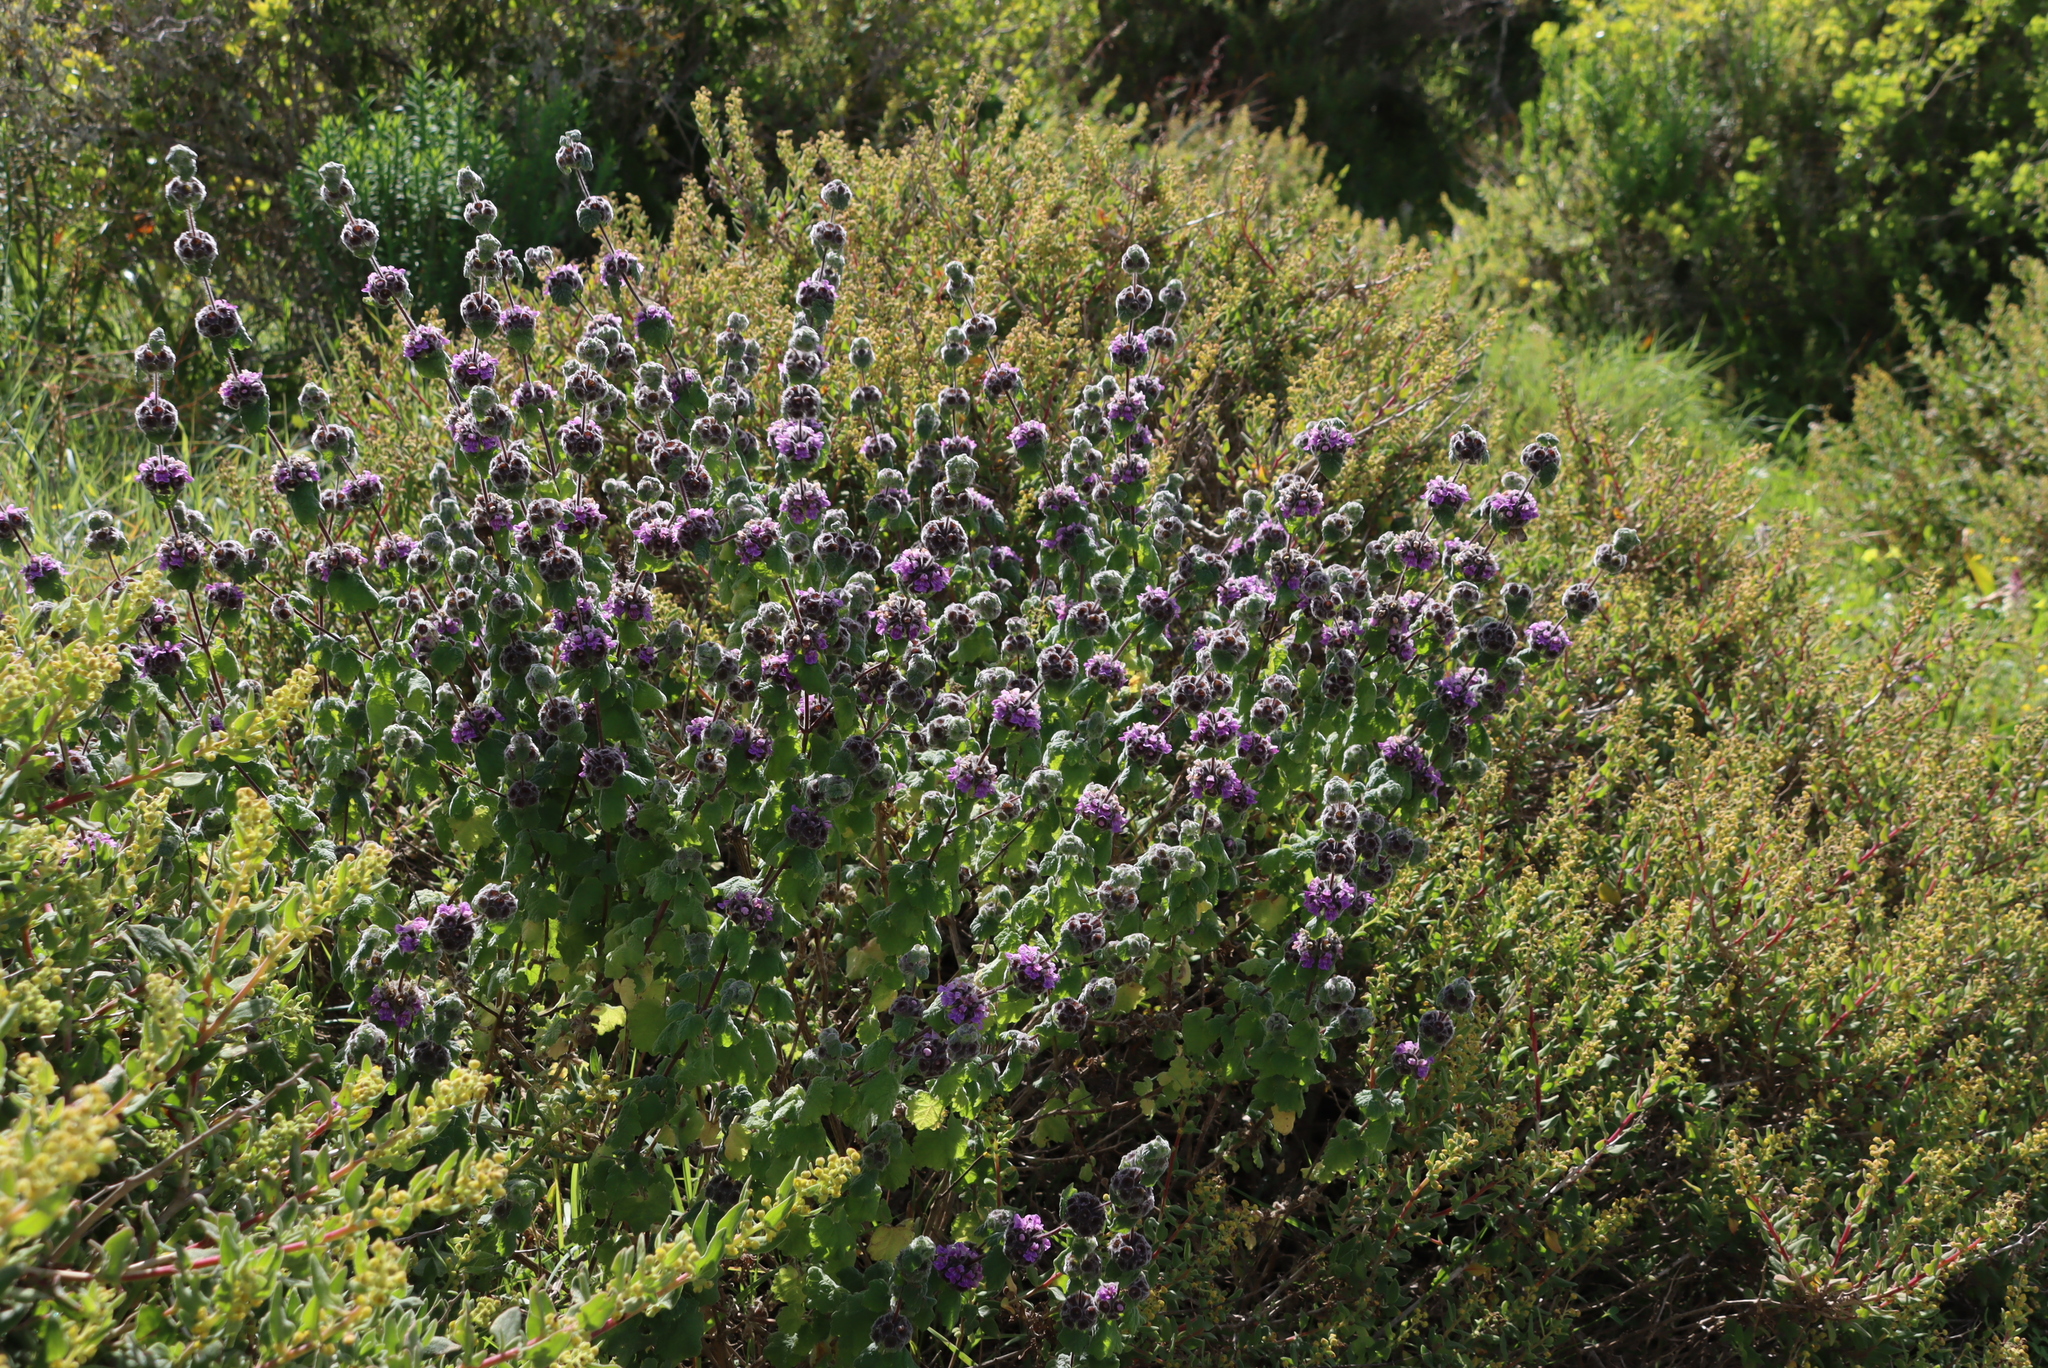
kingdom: Plantae
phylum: Tracheophyta
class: Magnoliopsida
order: Lamiales
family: Lamiaceae
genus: Pseudodictamnus
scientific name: Pseudodictamnus africanus
